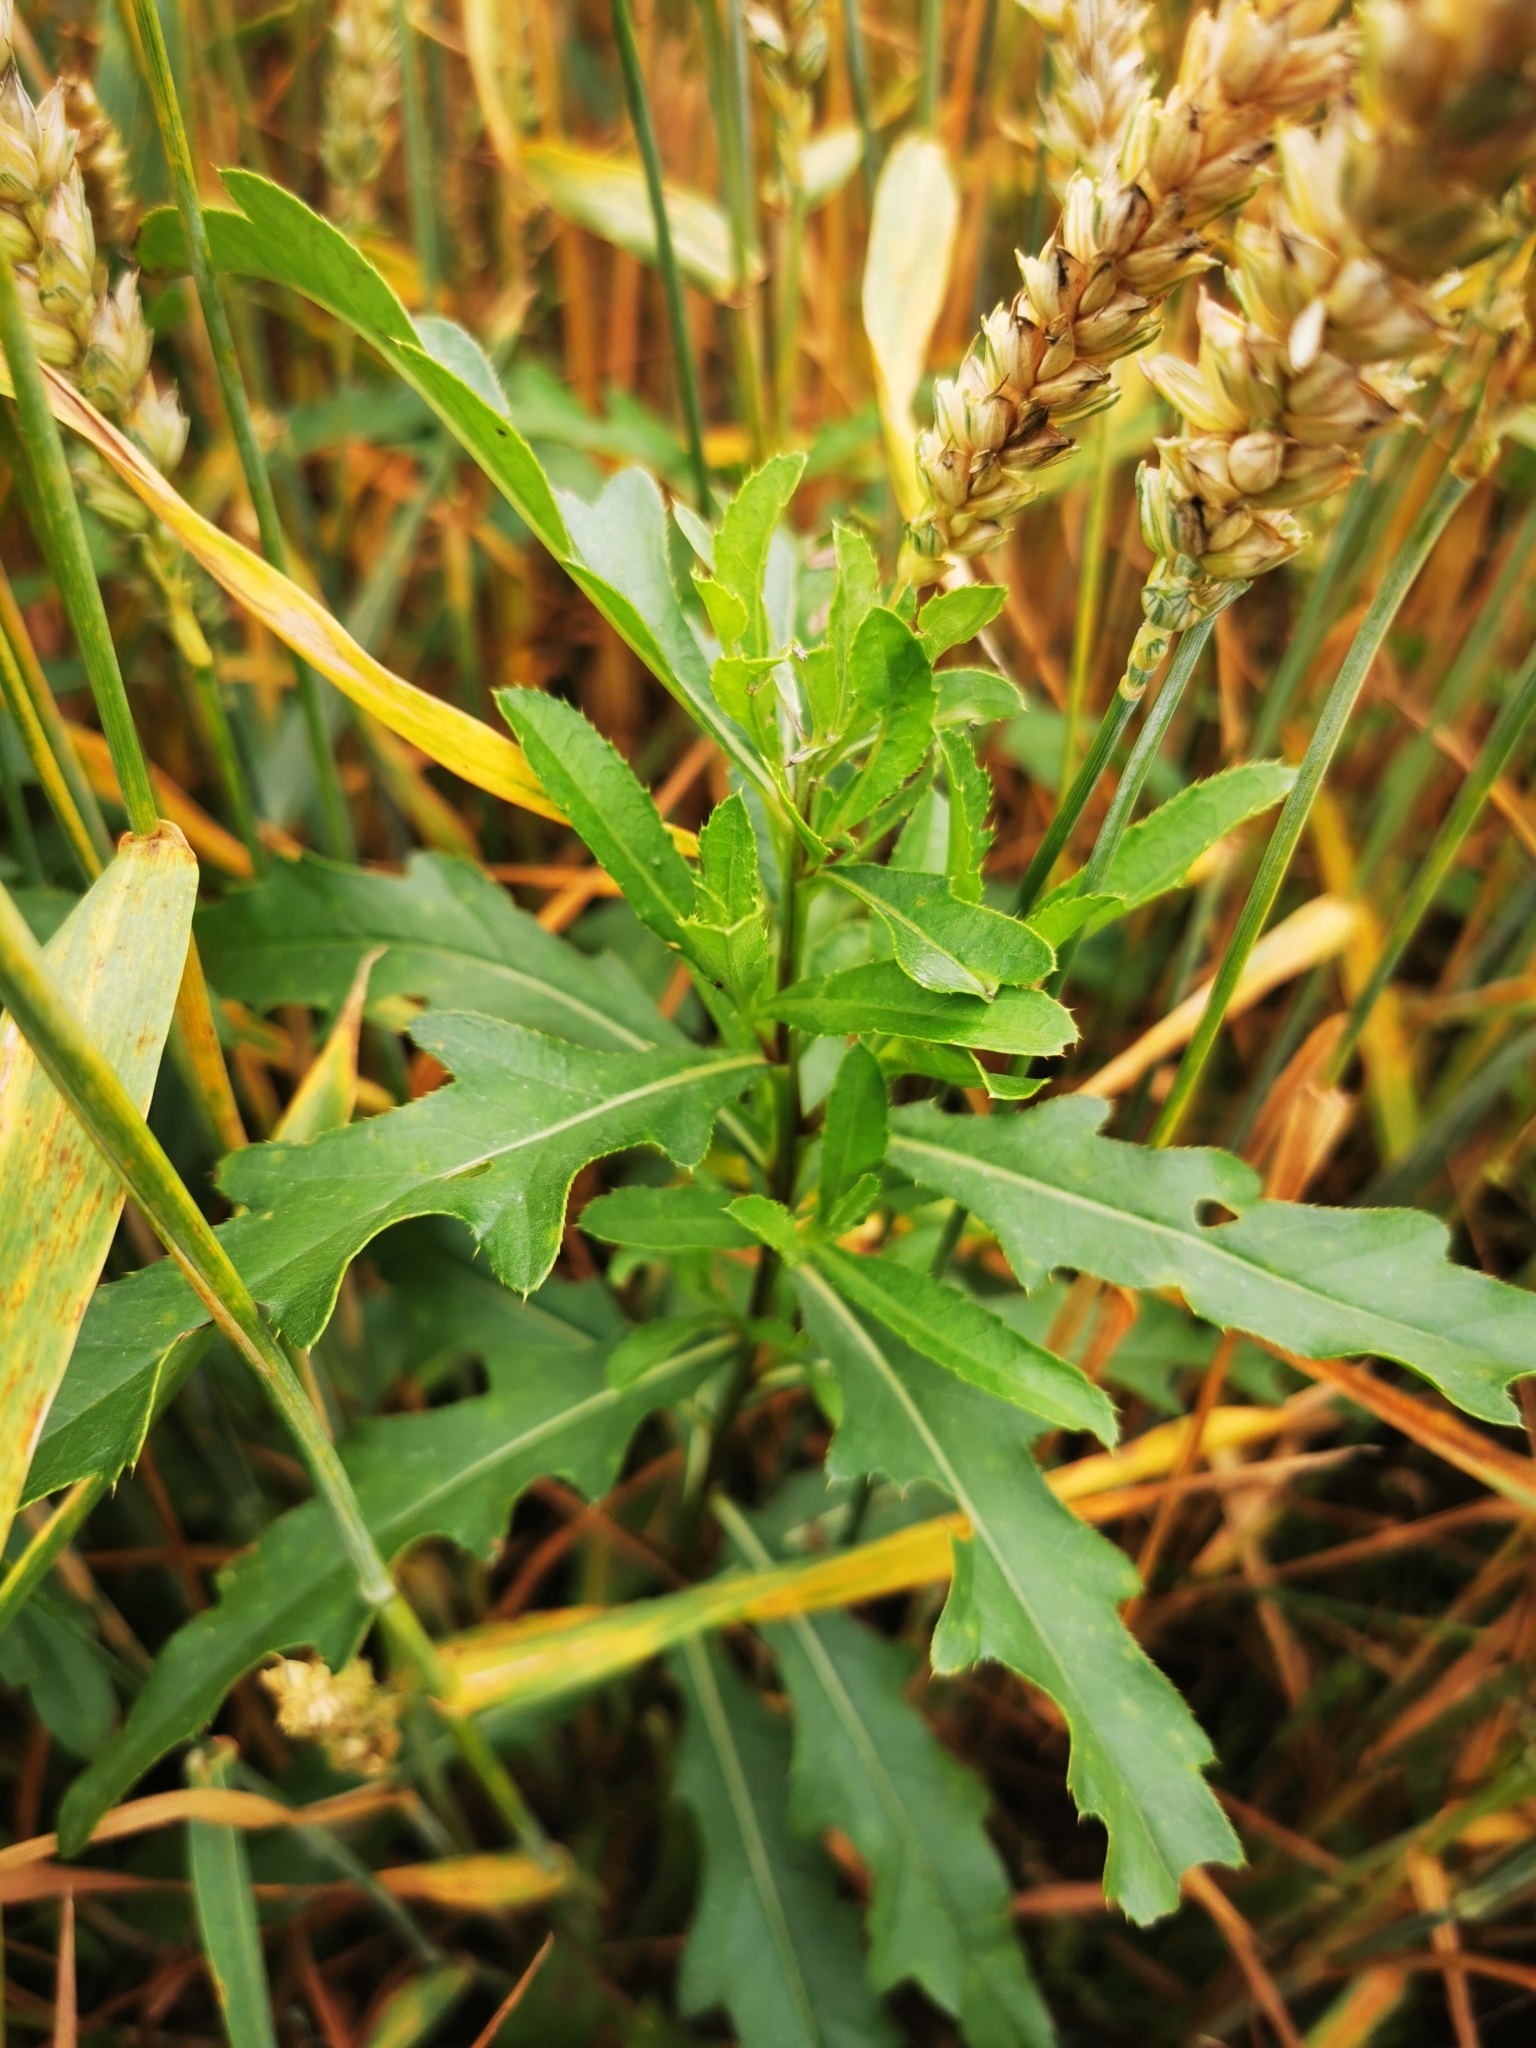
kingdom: Plantae
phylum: Tracheophyta
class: Magnoliopsida
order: Asterales
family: Asteraceae
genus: Cirsium
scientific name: Cirsium arvense
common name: Creeping thistle
